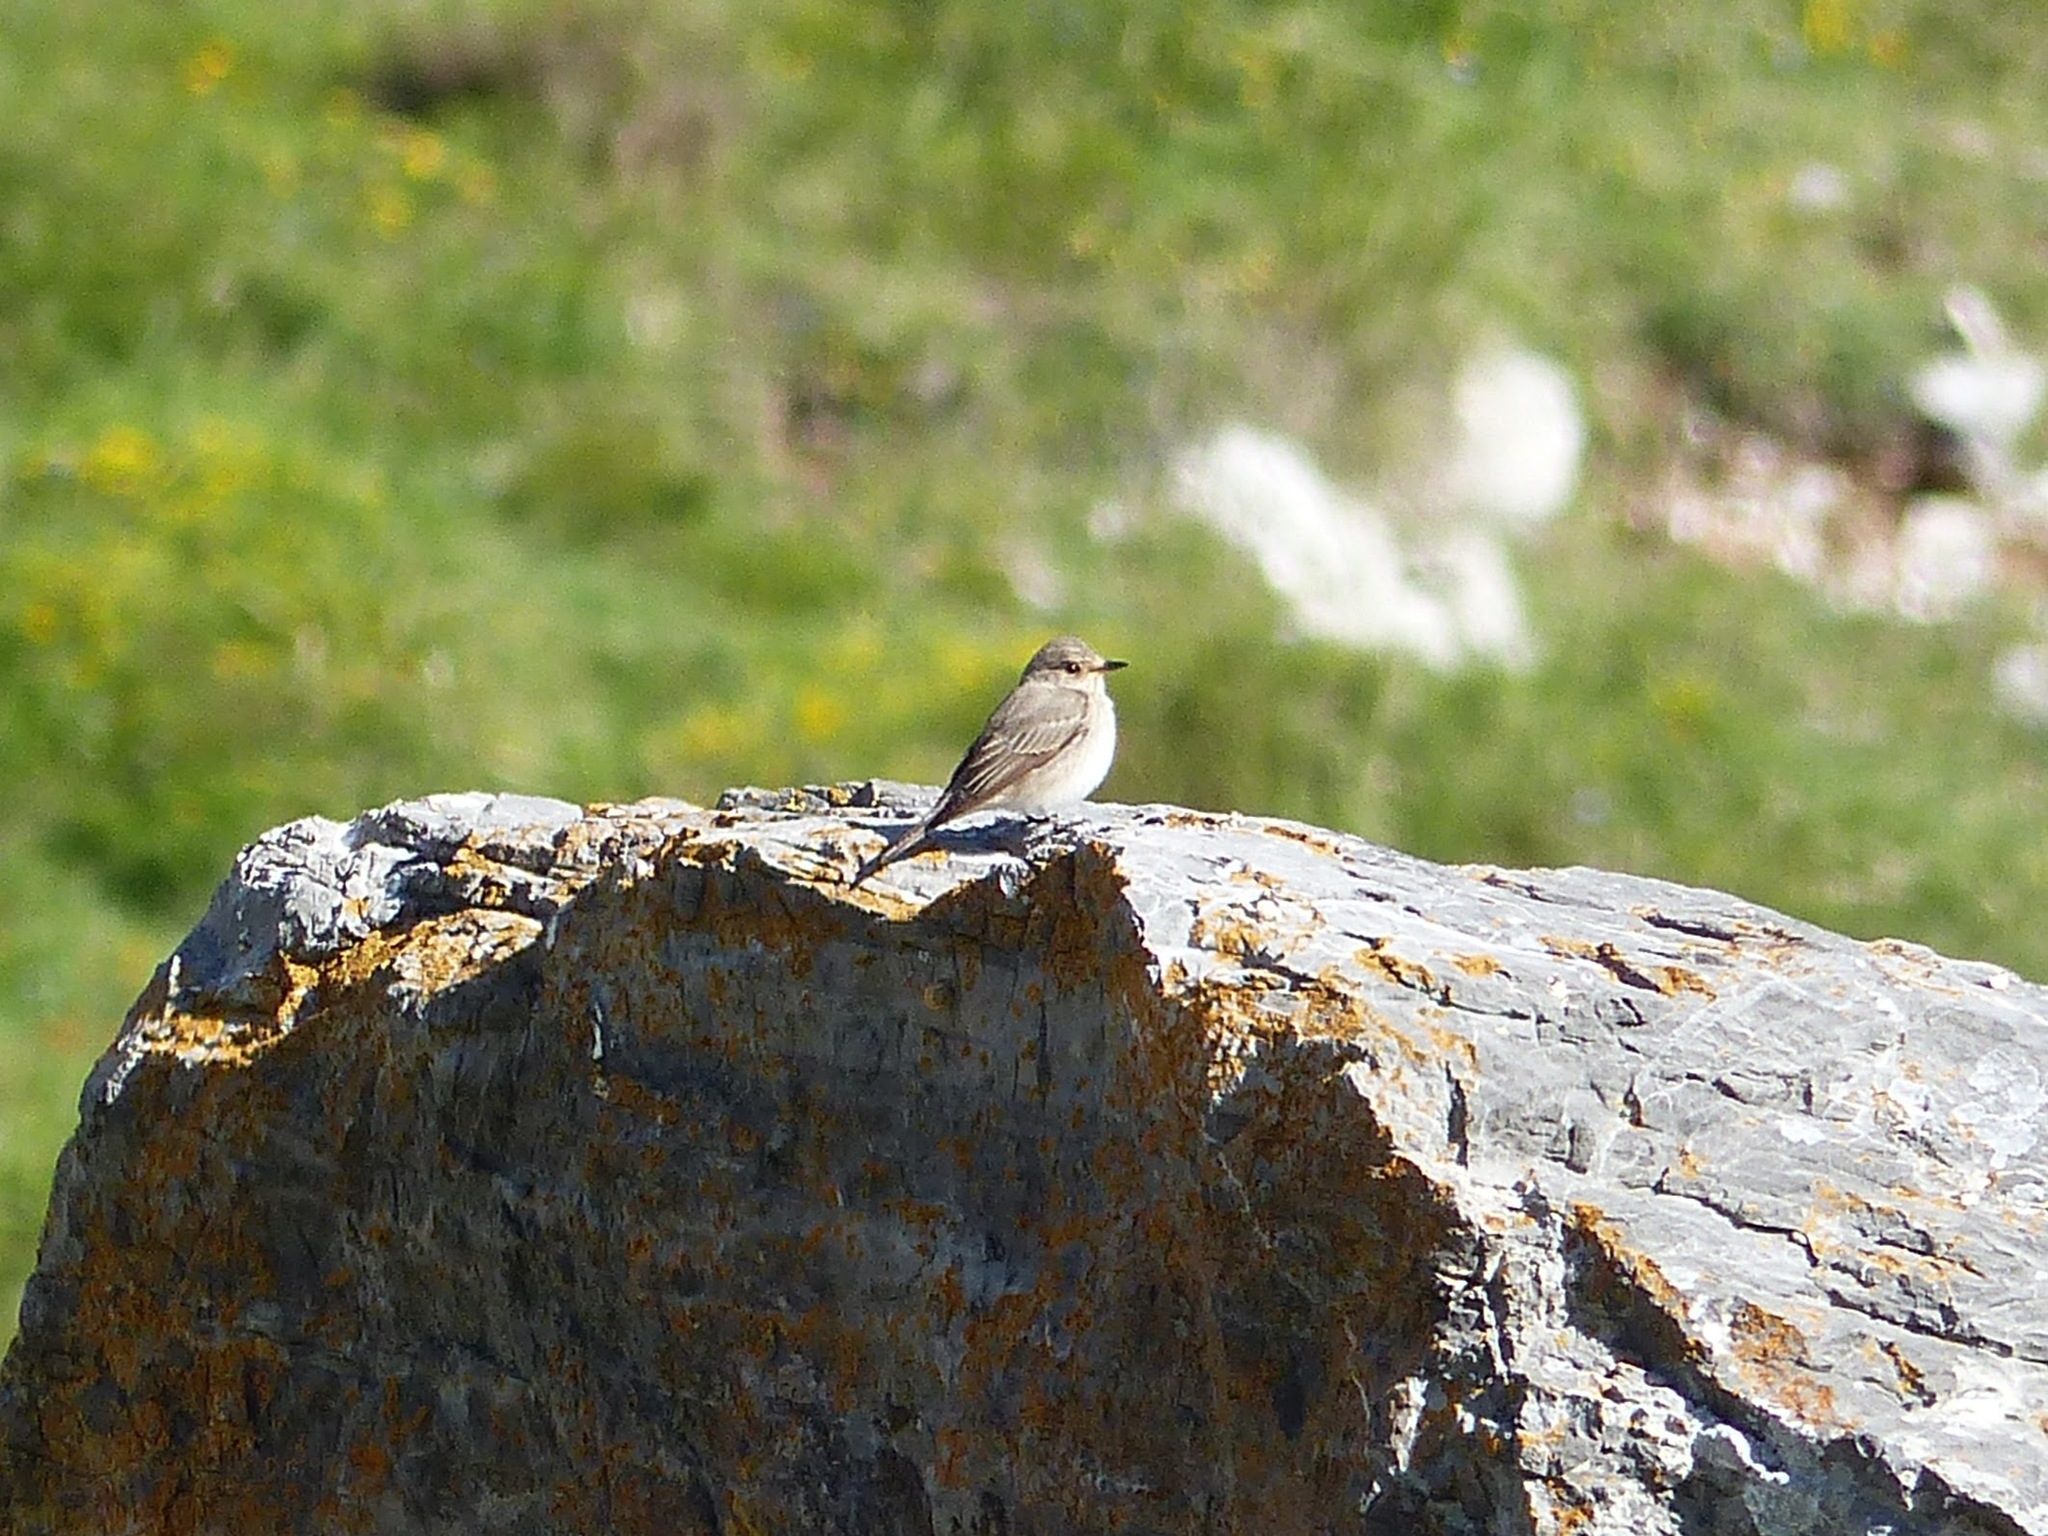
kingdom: Animalia
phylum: Chordata
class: Aves
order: Passeriformes
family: Muscicapidae
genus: Muscicapa
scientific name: Muscicapa striata
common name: Spotted flycatcher
